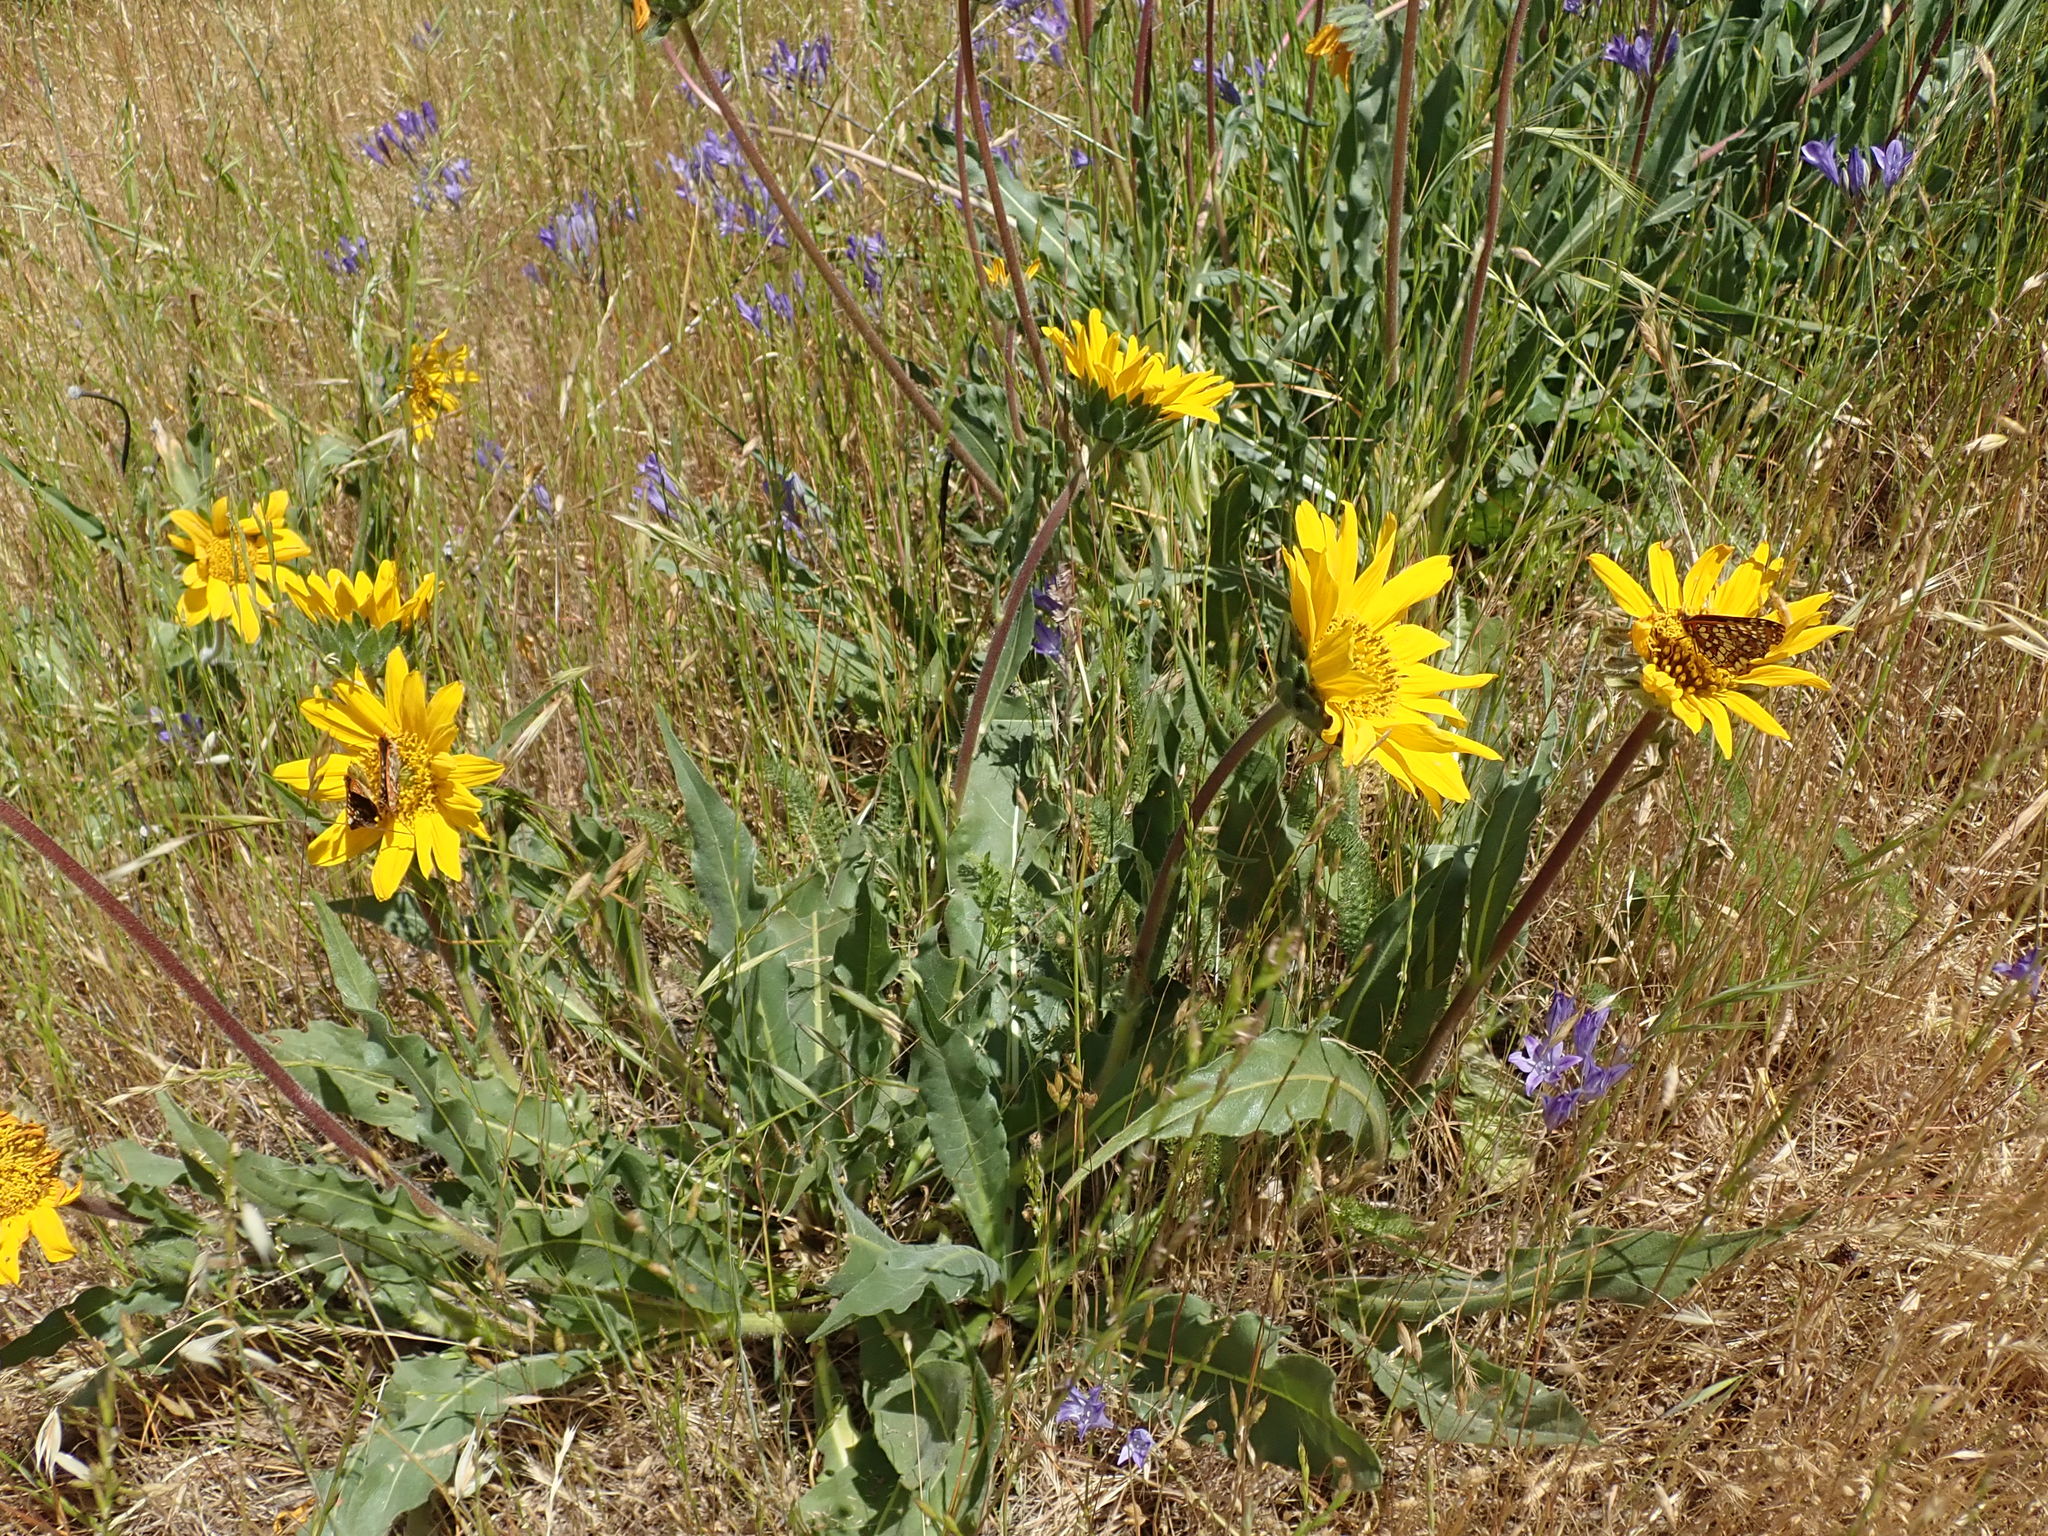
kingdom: Plantae
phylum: Tracheophyta
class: Magnoliopsida
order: Asterales
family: Asteraceae
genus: Wyethia
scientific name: Wyethia angustifolia
